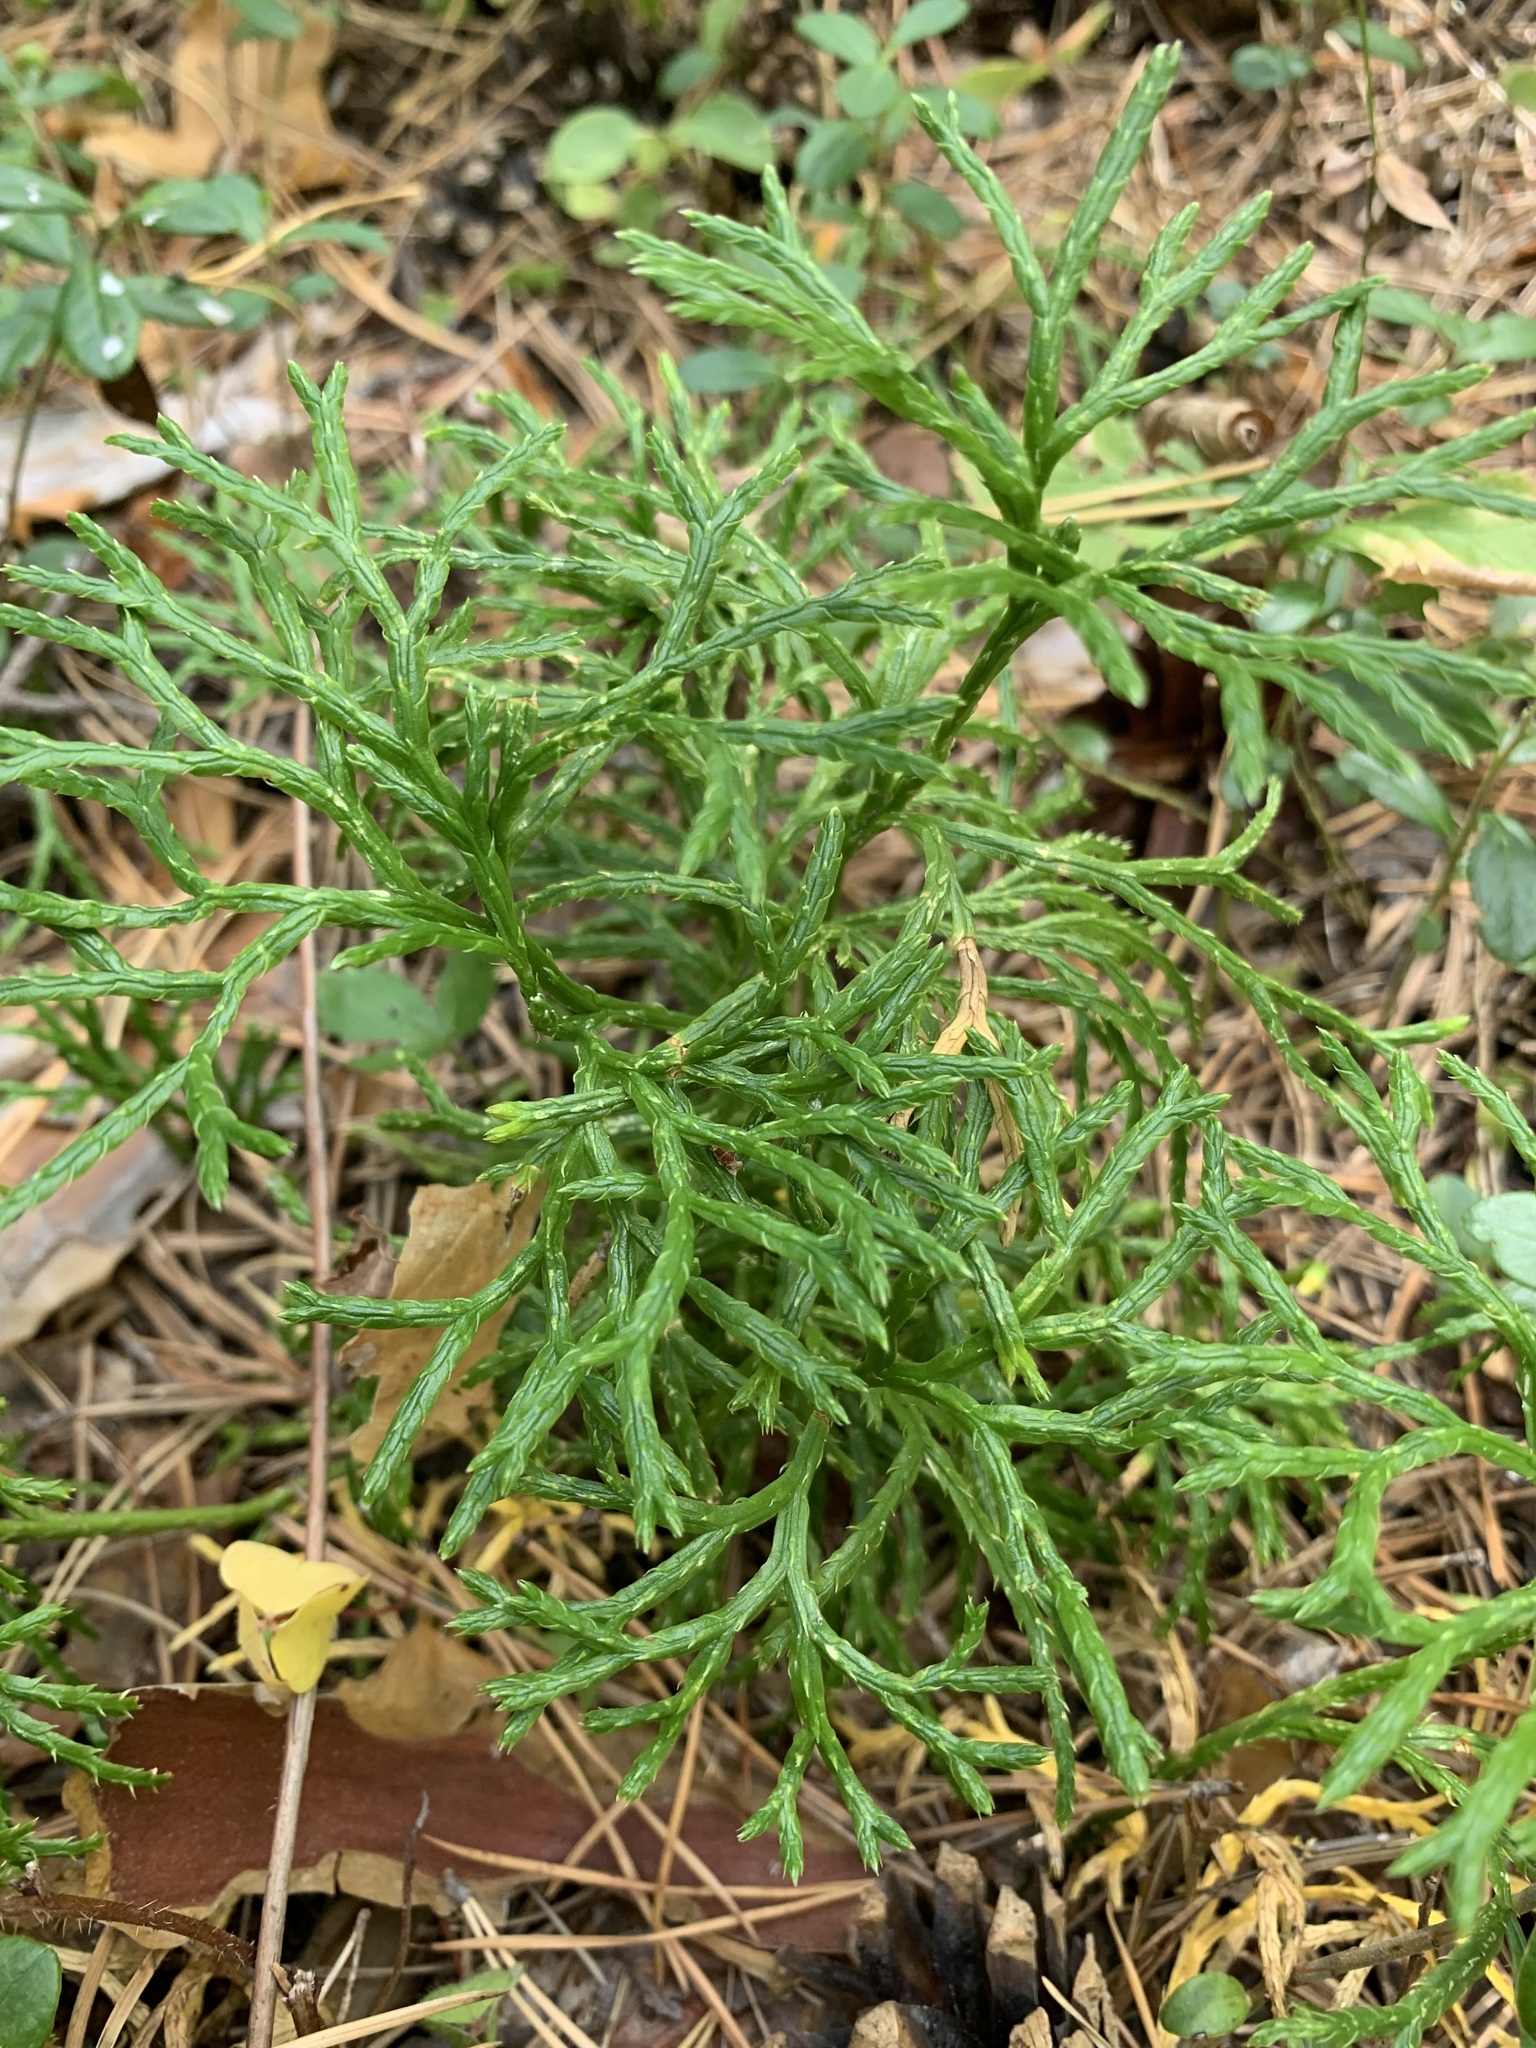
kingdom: Plantae
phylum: Tracheophyta
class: Lycopodiopsida
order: Lycopodiales
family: Lycopodiaceae
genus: Diphasiastrum
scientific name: Diphasiastrum complanatum
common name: Northern running-pine
